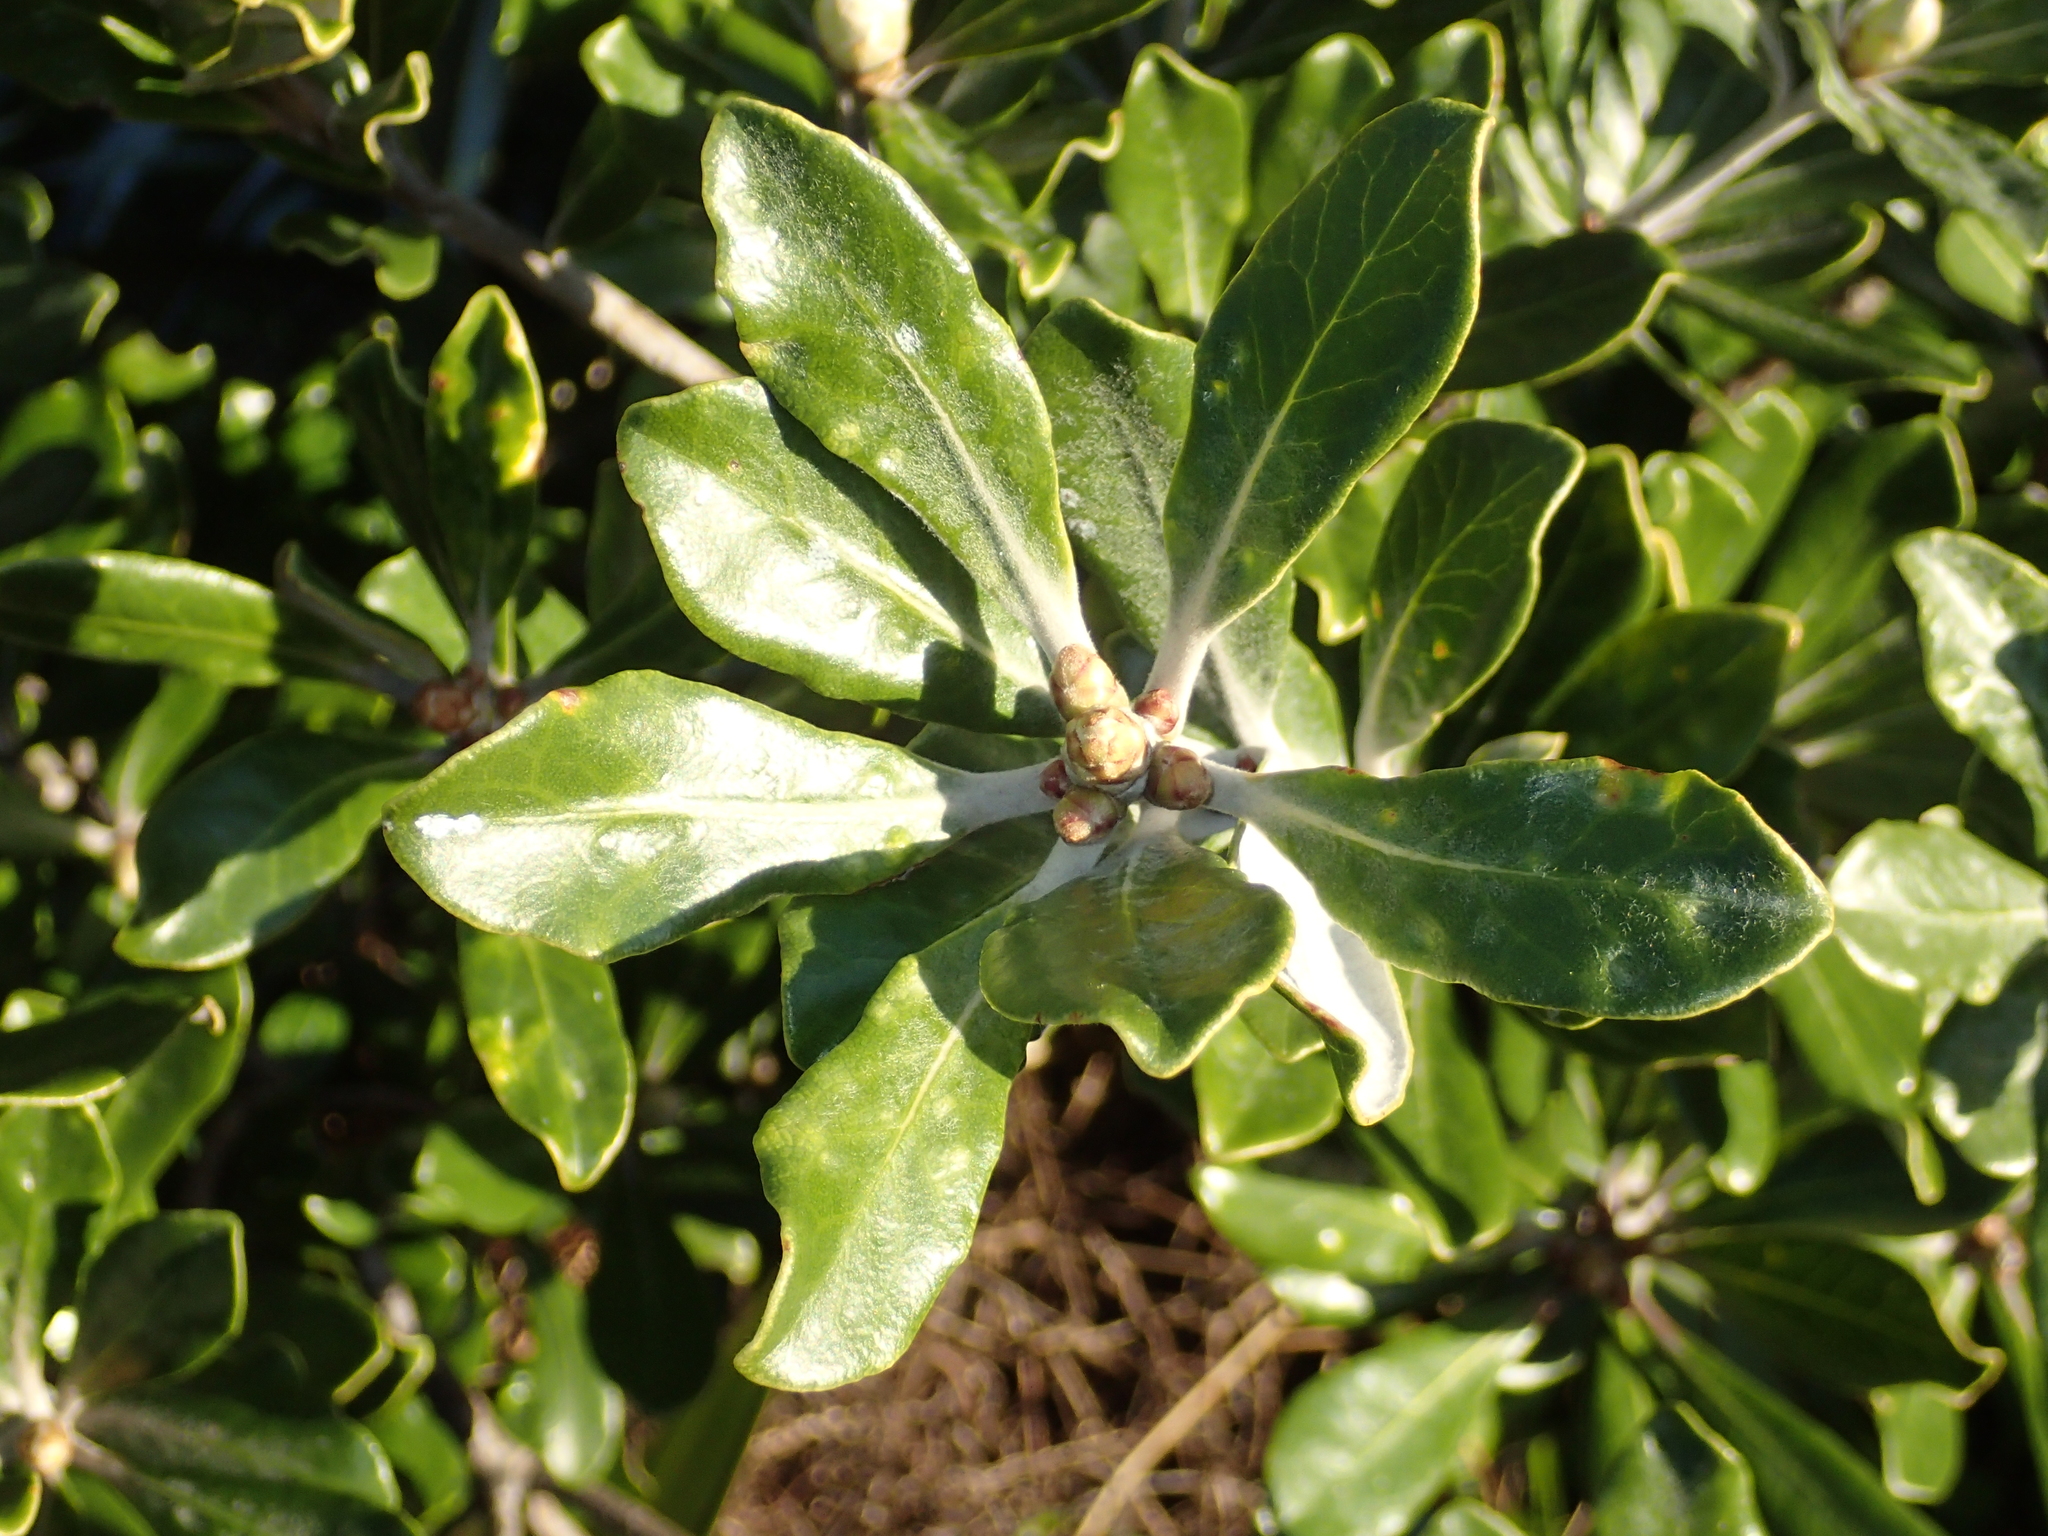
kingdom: Plantae
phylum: Tracheophyta
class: Magnoliopsida
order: Apiales
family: Pittosporaceae
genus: Pittosporum
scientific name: Pittosporum crassifolium
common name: Karo
